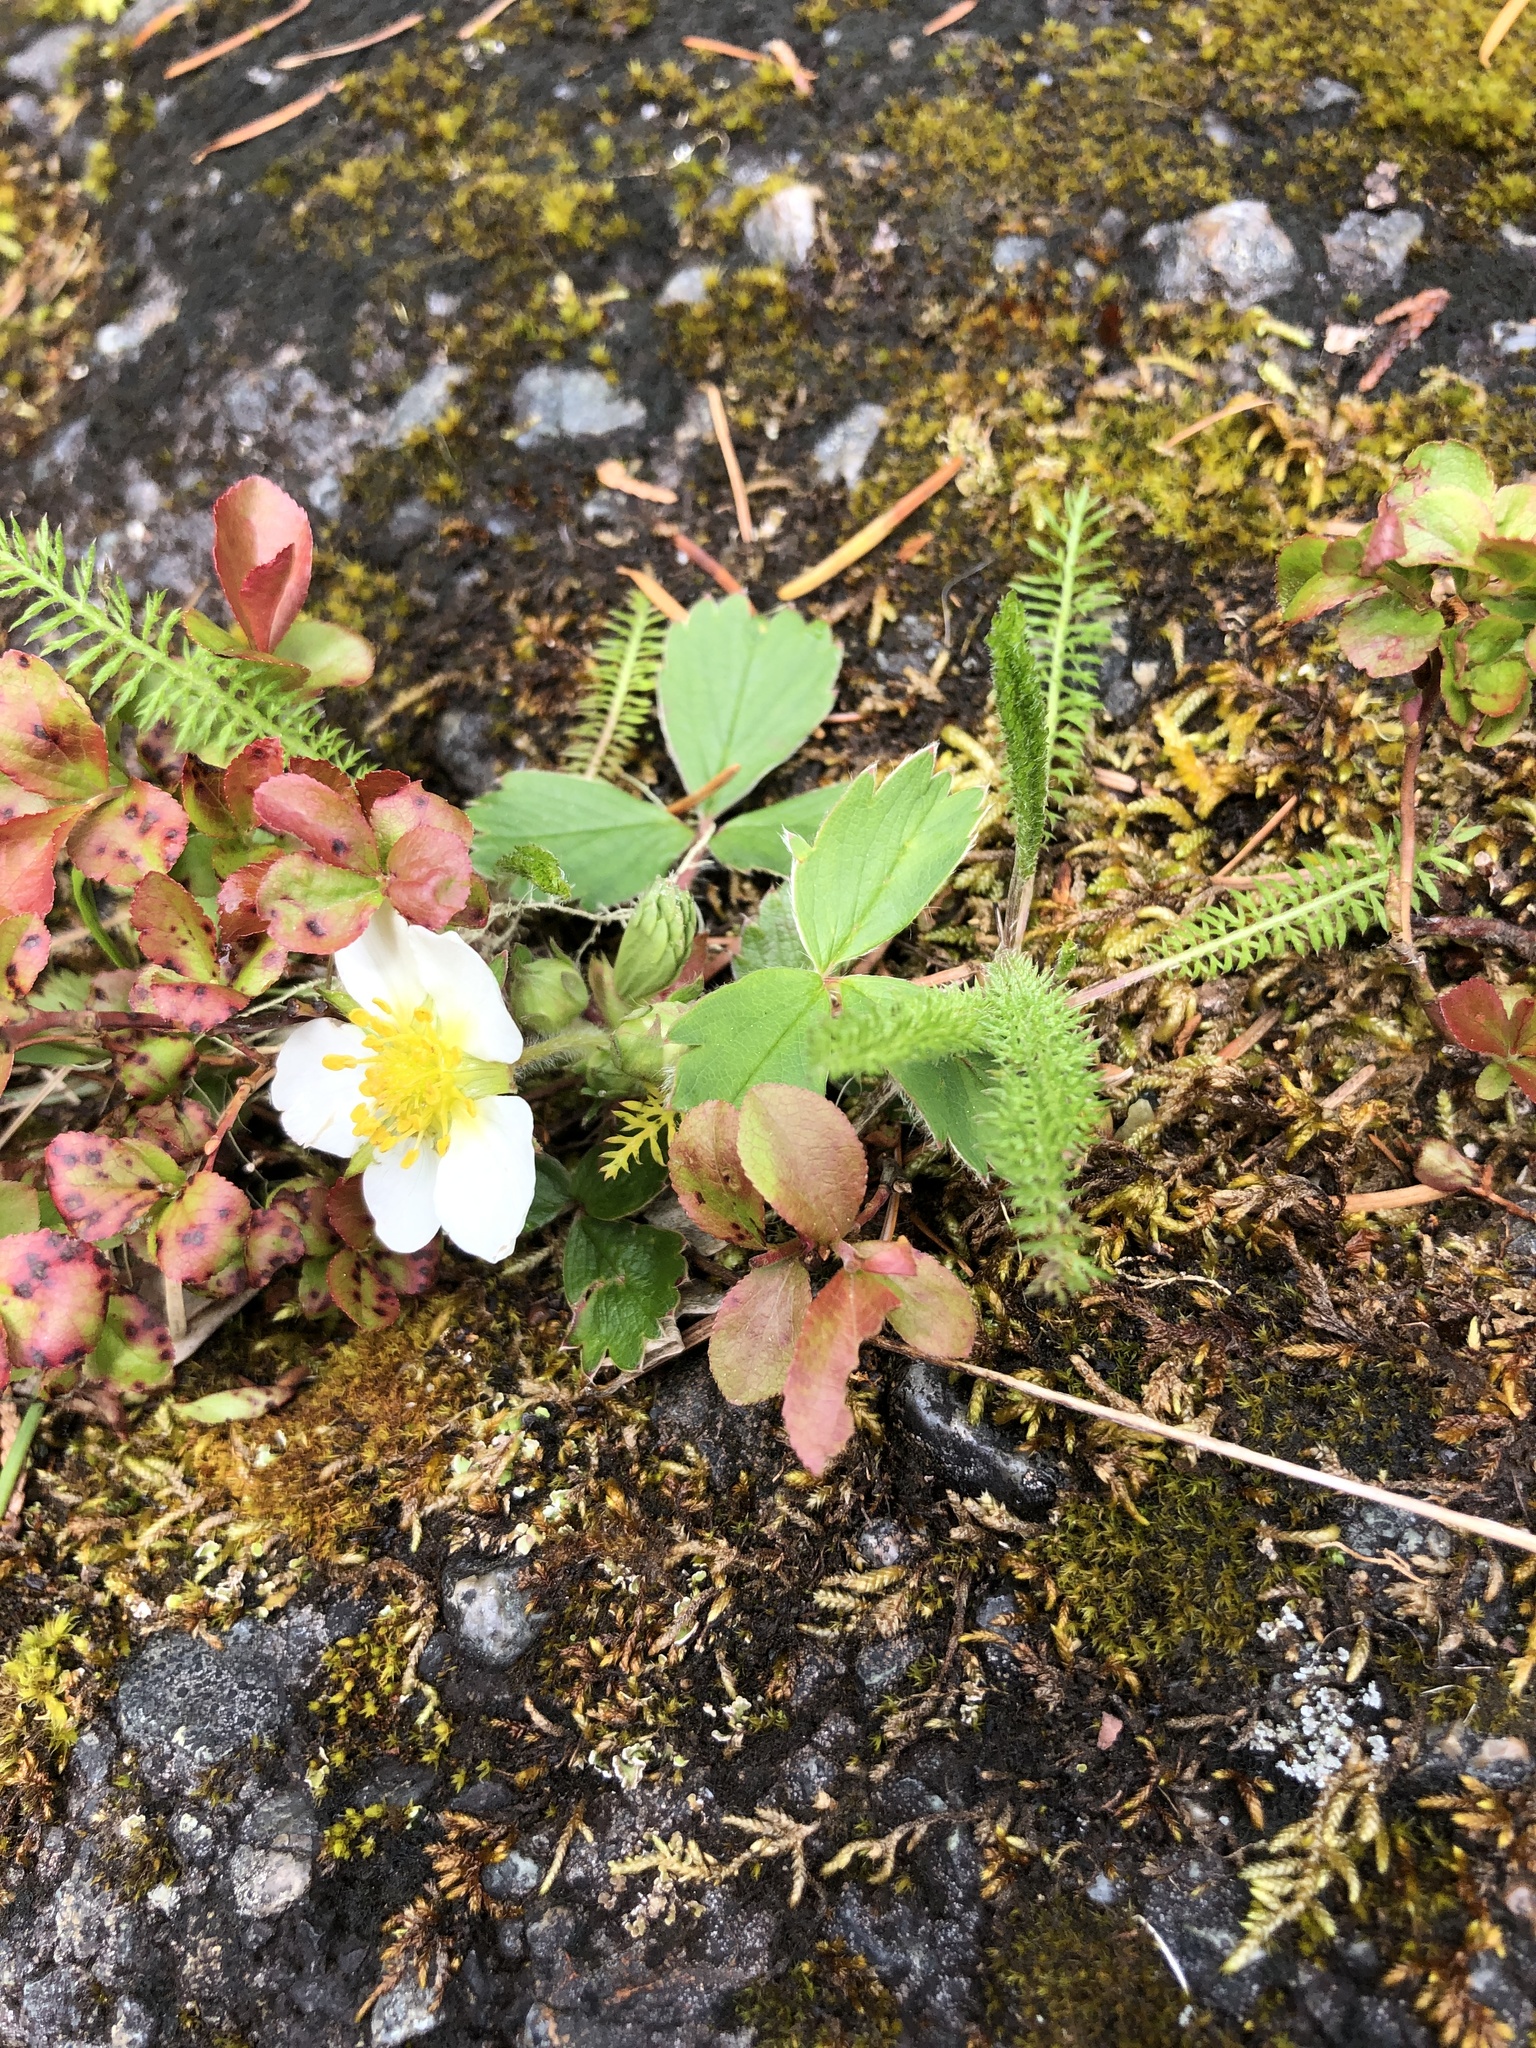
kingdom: Plantae
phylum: Tracheophyta
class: Magnoliopsida
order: Rosales
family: Rosaceae
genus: Fragaria
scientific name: Fragaria virginiana
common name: Thickleaved wild strawberry
